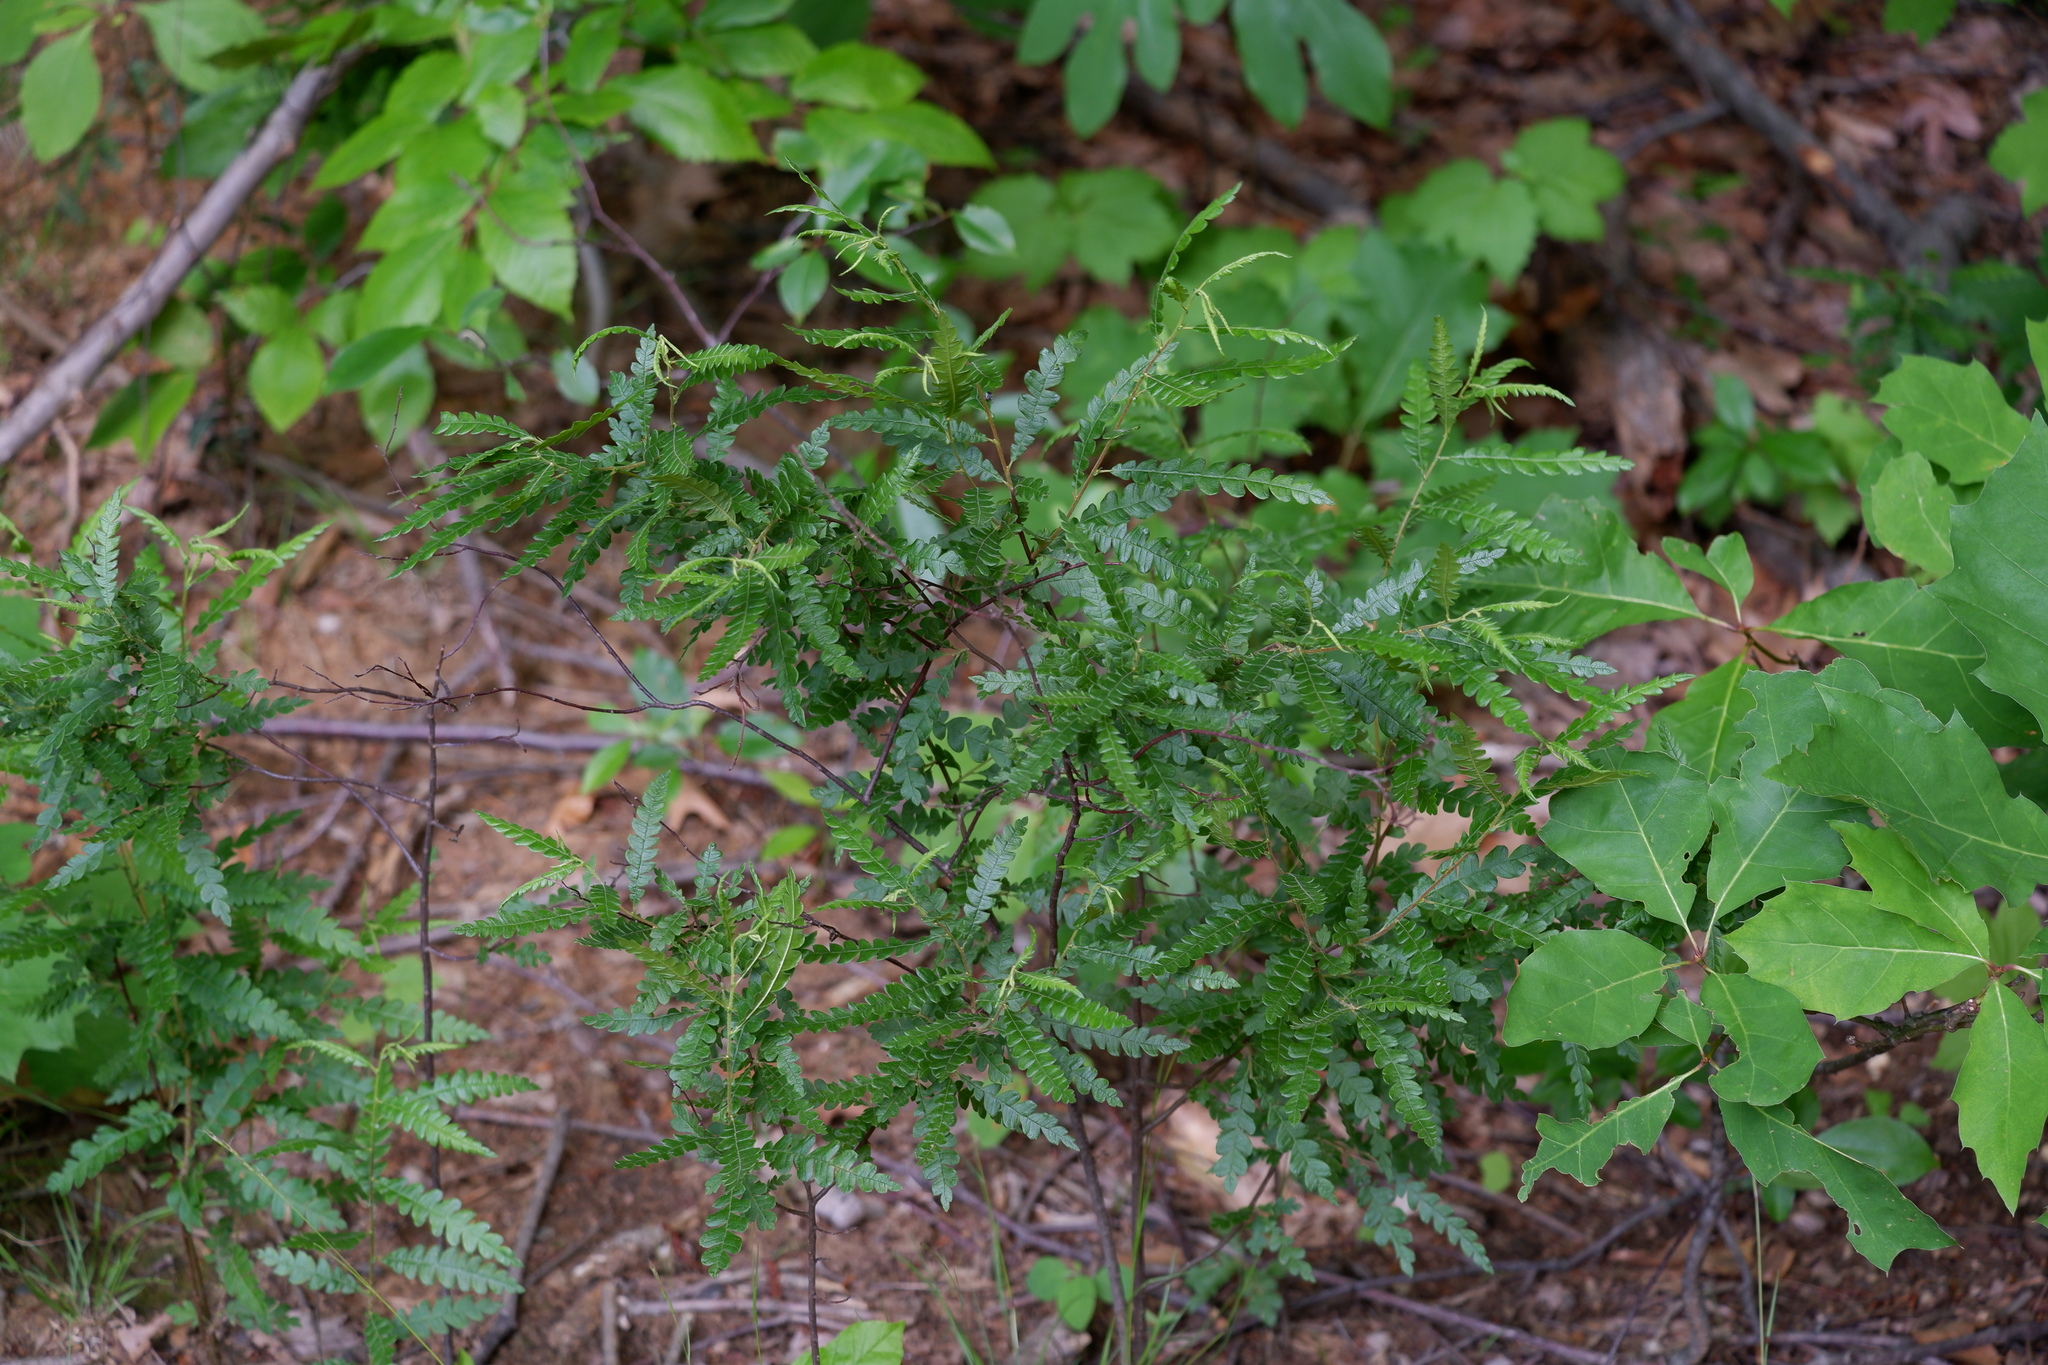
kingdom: Plantae
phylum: Tracheophyta
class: Magnoliopsida
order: Fagales
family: Myricaceae
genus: Comptonia
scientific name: Comptonia peregrina
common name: Sweet-fern
